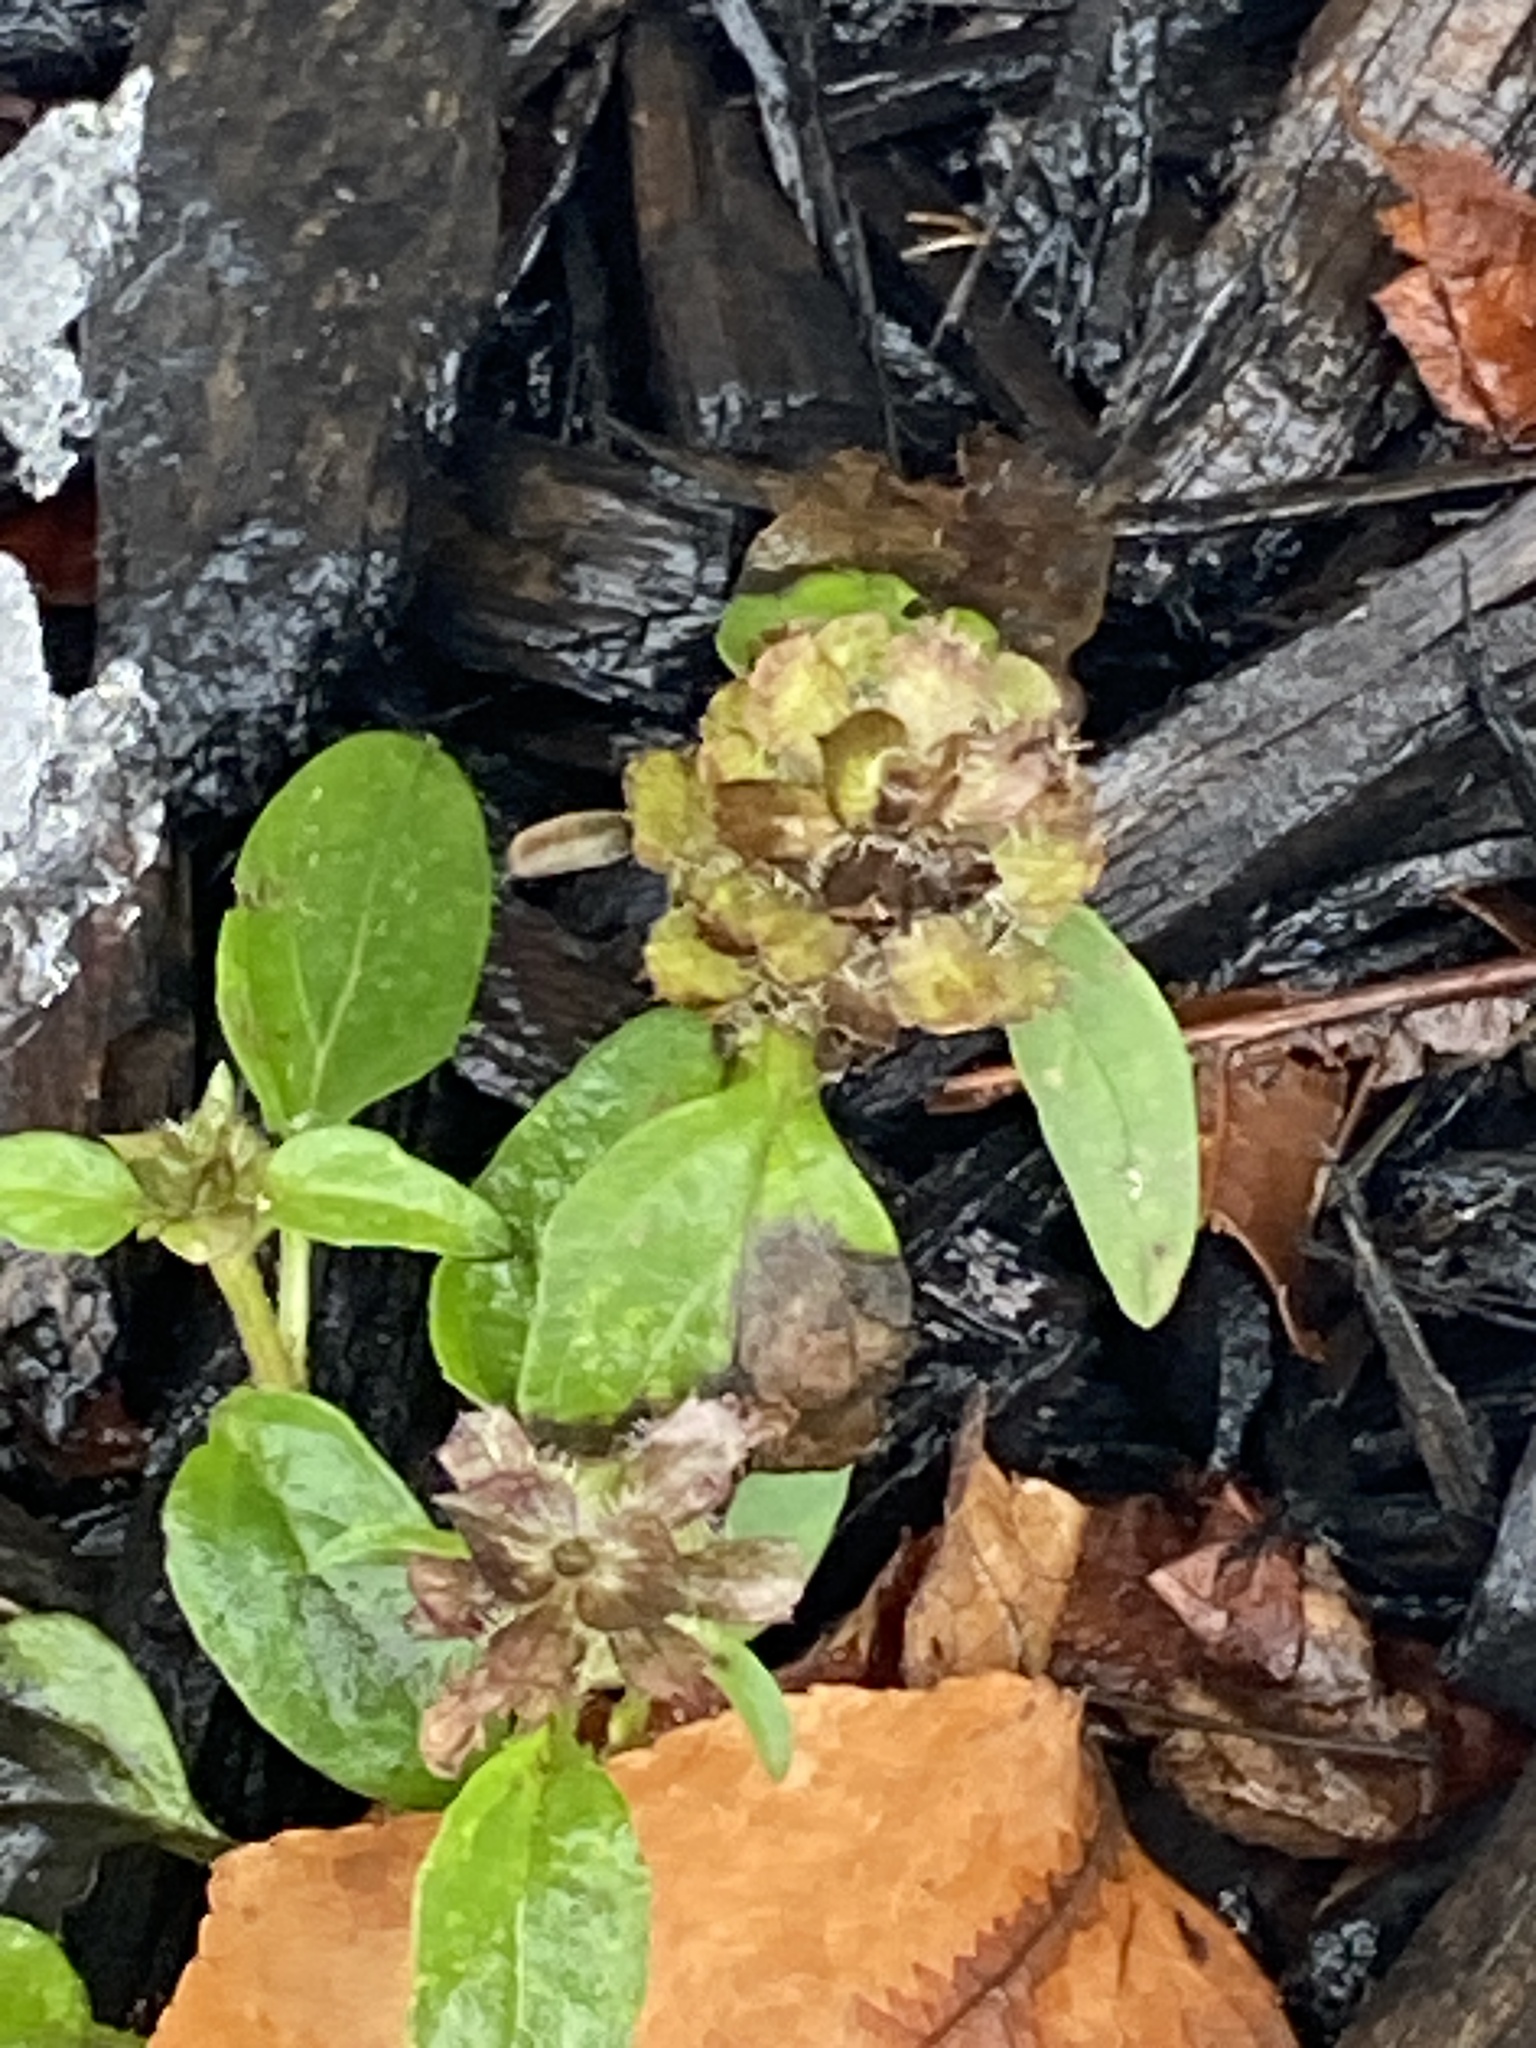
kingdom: Plantae
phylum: Tracheophyta
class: Magnoliopsida
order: Lamiales
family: Lamiaceae
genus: Prunella
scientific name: Prunella vulgaris
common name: Heal-all
